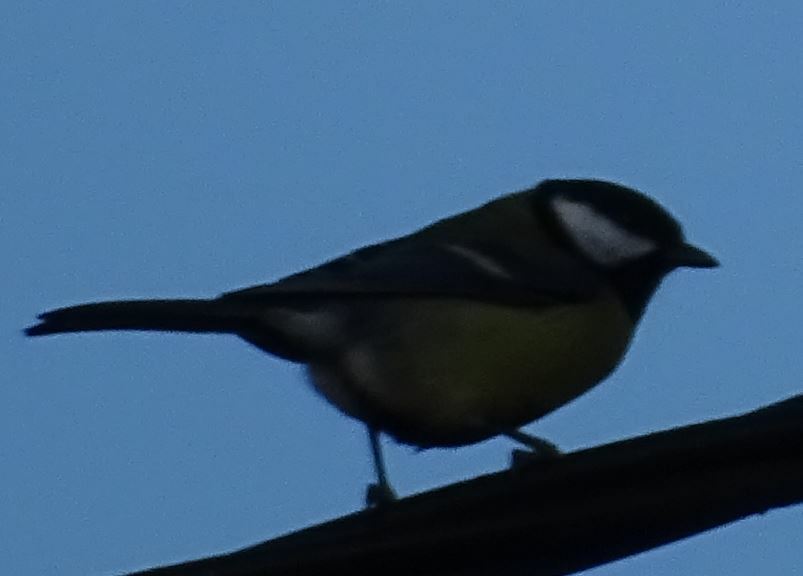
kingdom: Animalia
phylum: Chordata
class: Aves
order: Passeriformes
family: Paridae
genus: Parus
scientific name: Parus major
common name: Great tit
